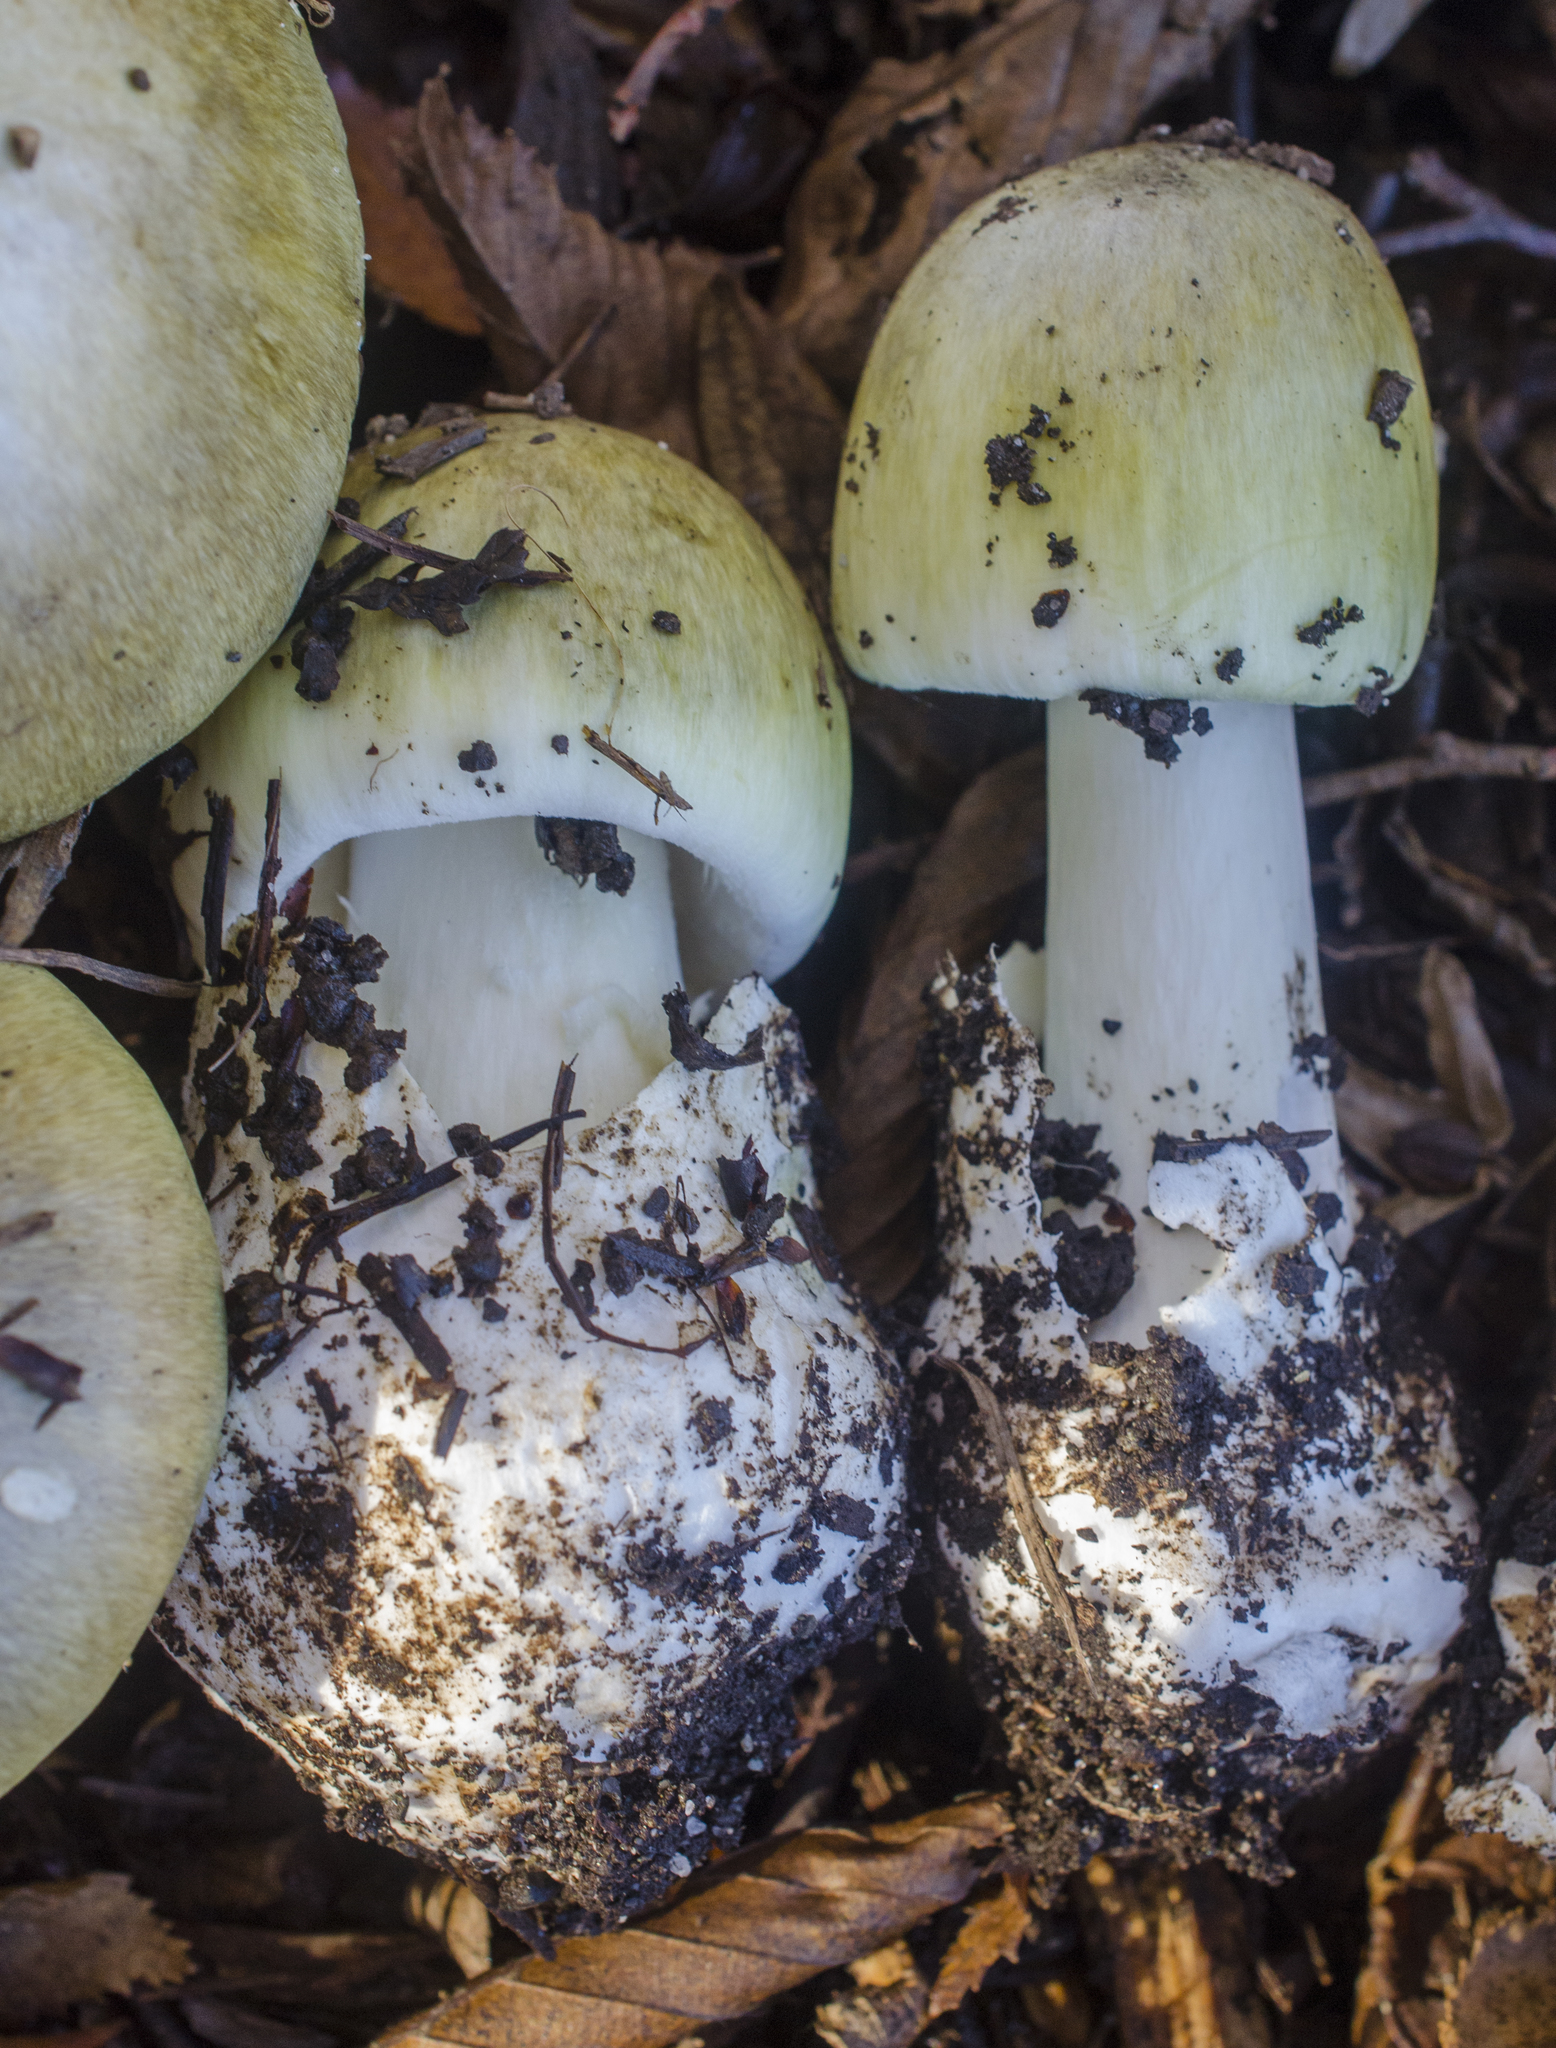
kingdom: Fungi
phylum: Basidiomycota
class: Agaricomycetes
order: Agaricales
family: Amanitaceae
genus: Amanita
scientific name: Amanita phalloides
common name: Death cap
